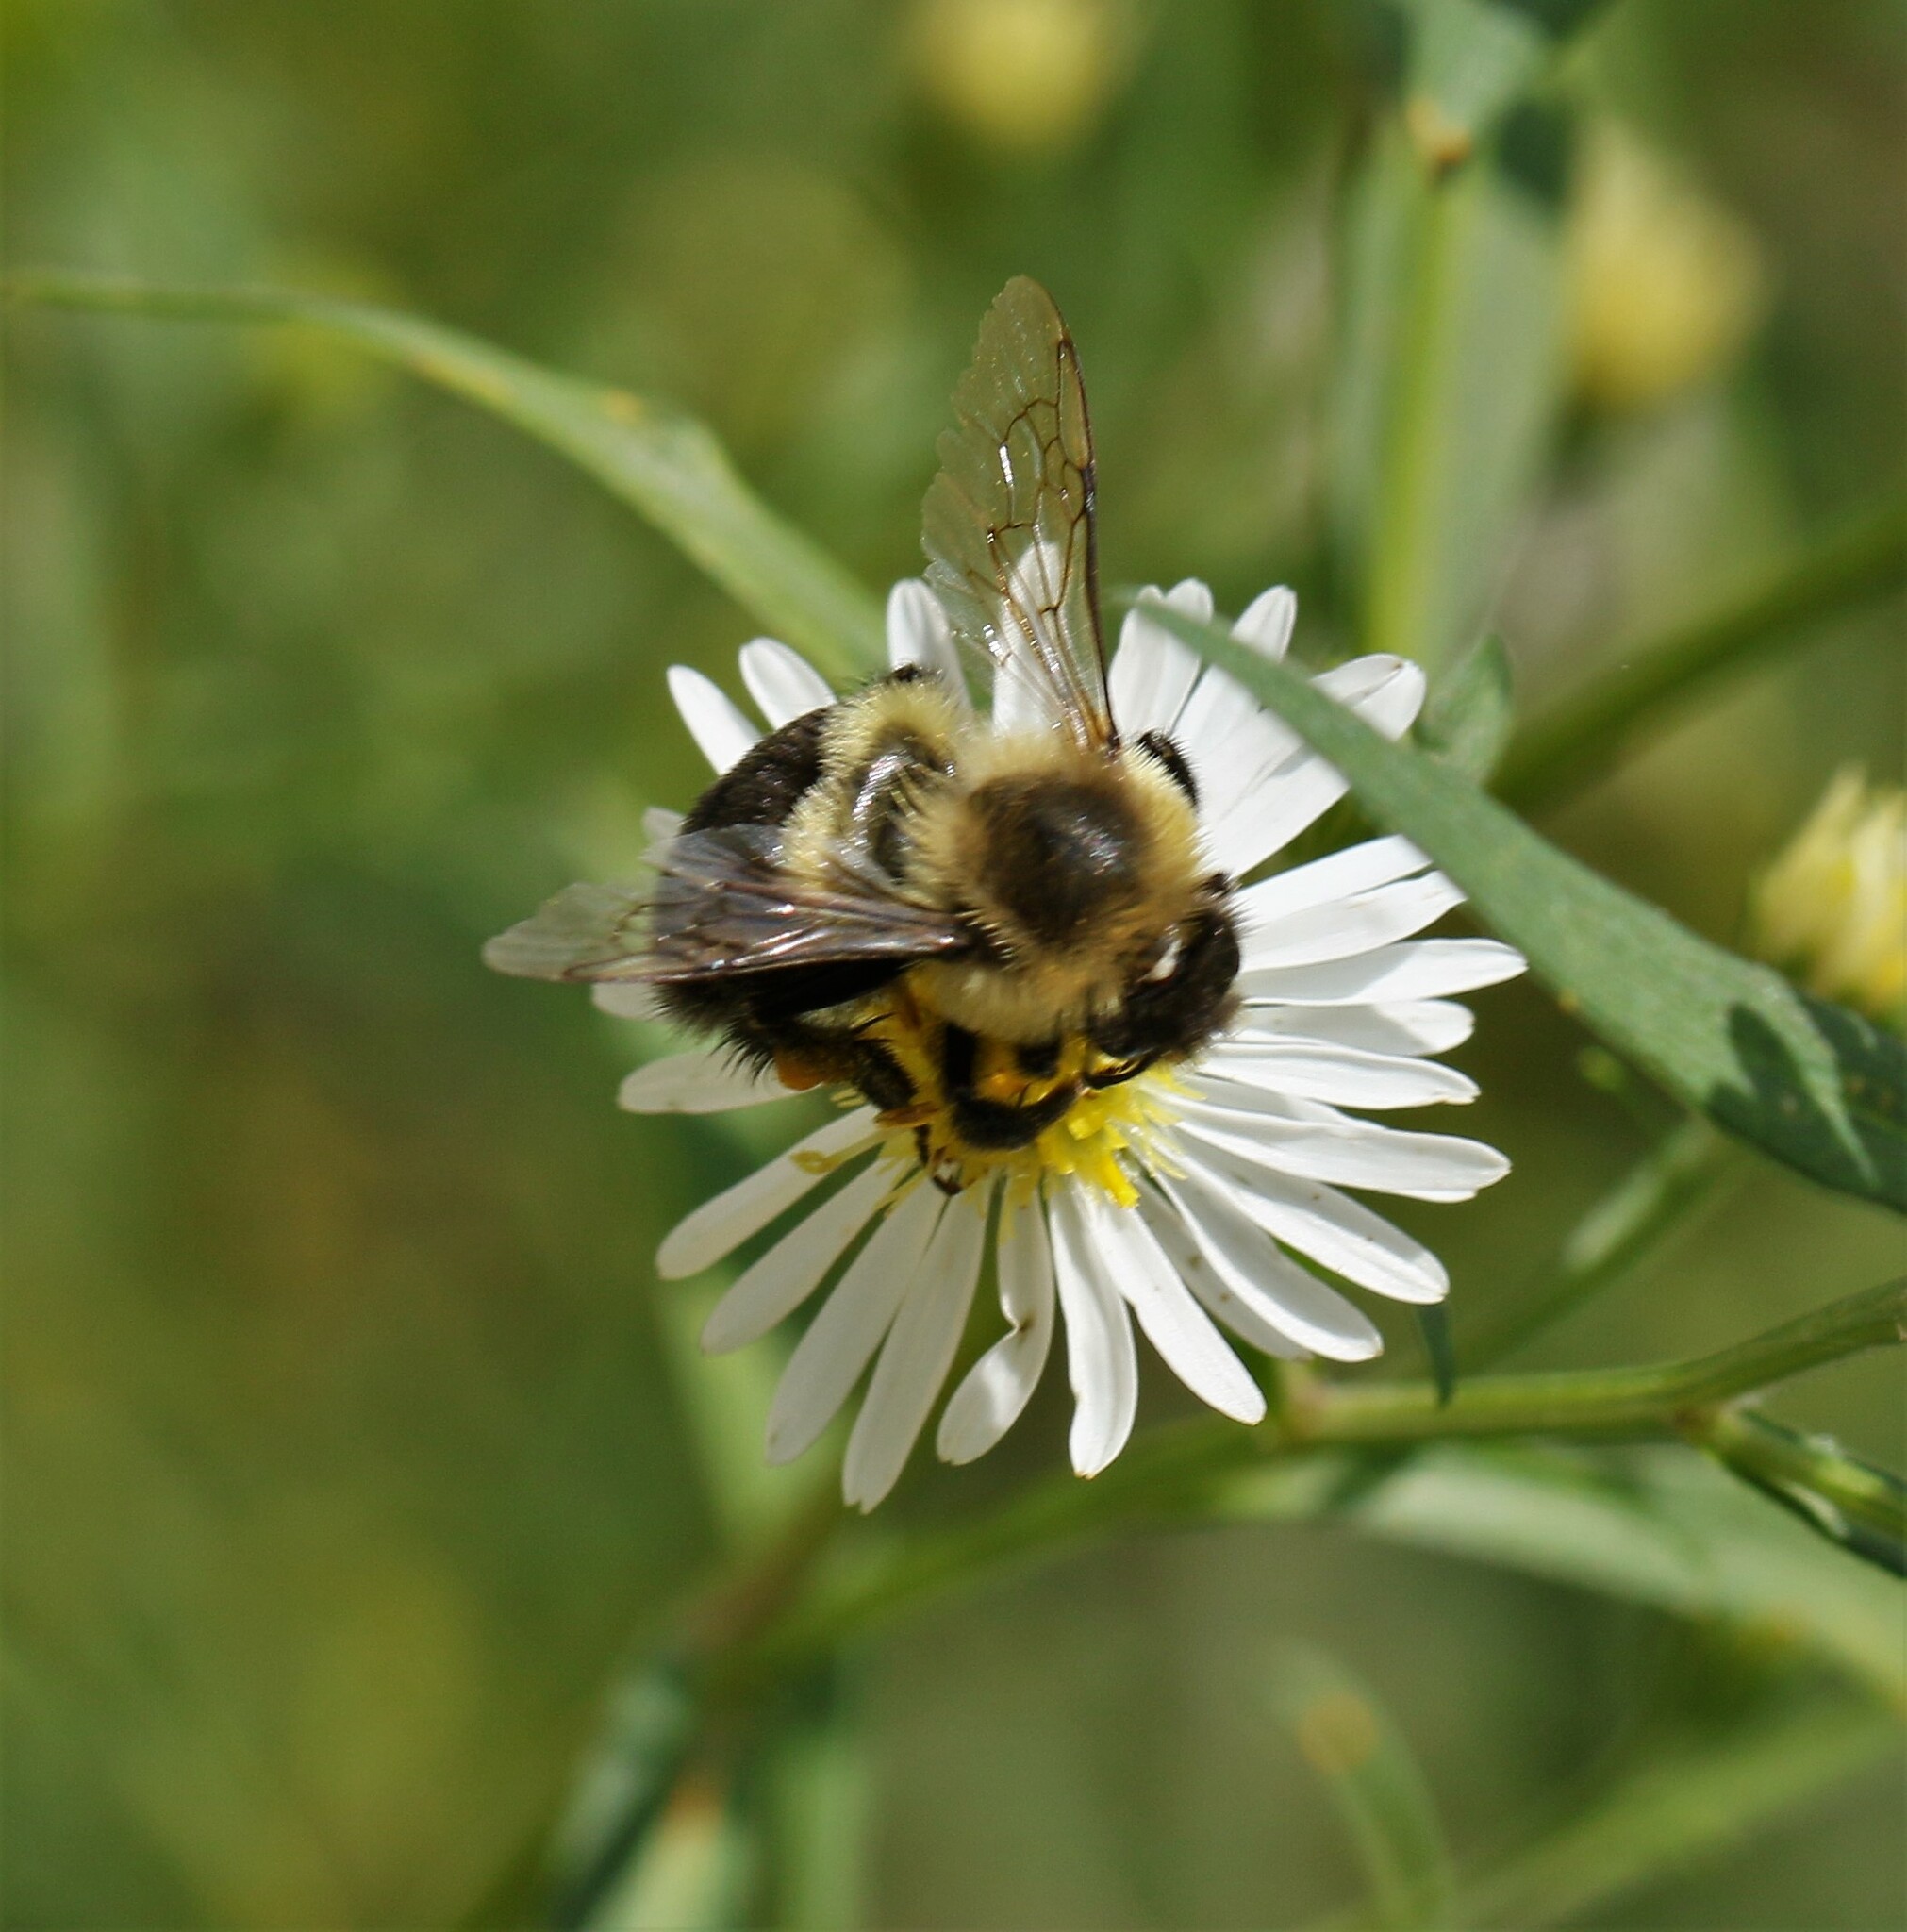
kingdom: Animalia
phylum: Arthropoda
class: Insecta
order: Hymenoptera
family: Apidae
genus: Bombus
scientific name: Bombus impatiens
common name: Common eastern bumble bee
